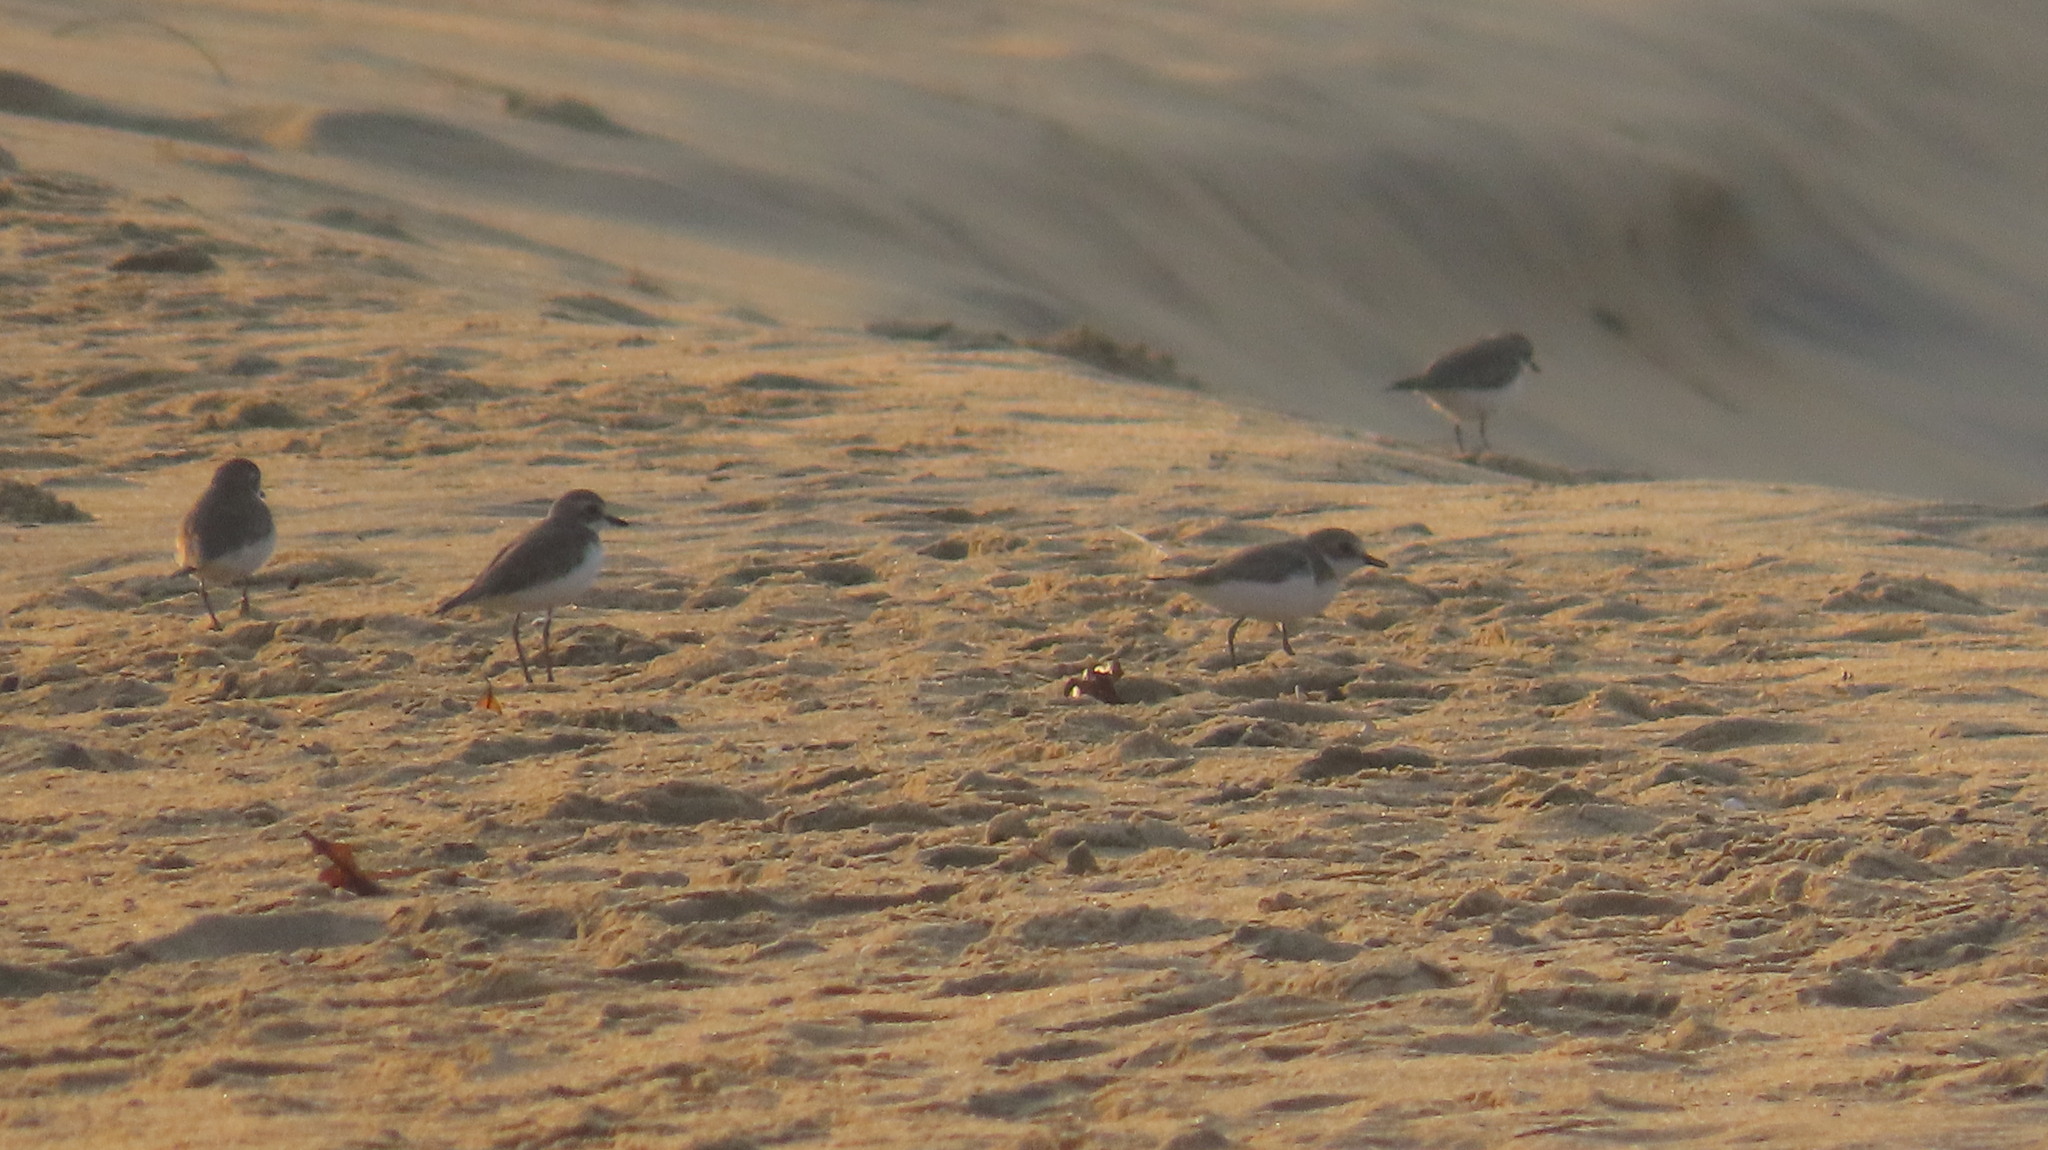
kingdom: Animalia
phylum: Chordata
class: Aves
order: Charadriiformes
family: Charadriidae
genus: Anarhynchus
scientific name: Anarhynchus
